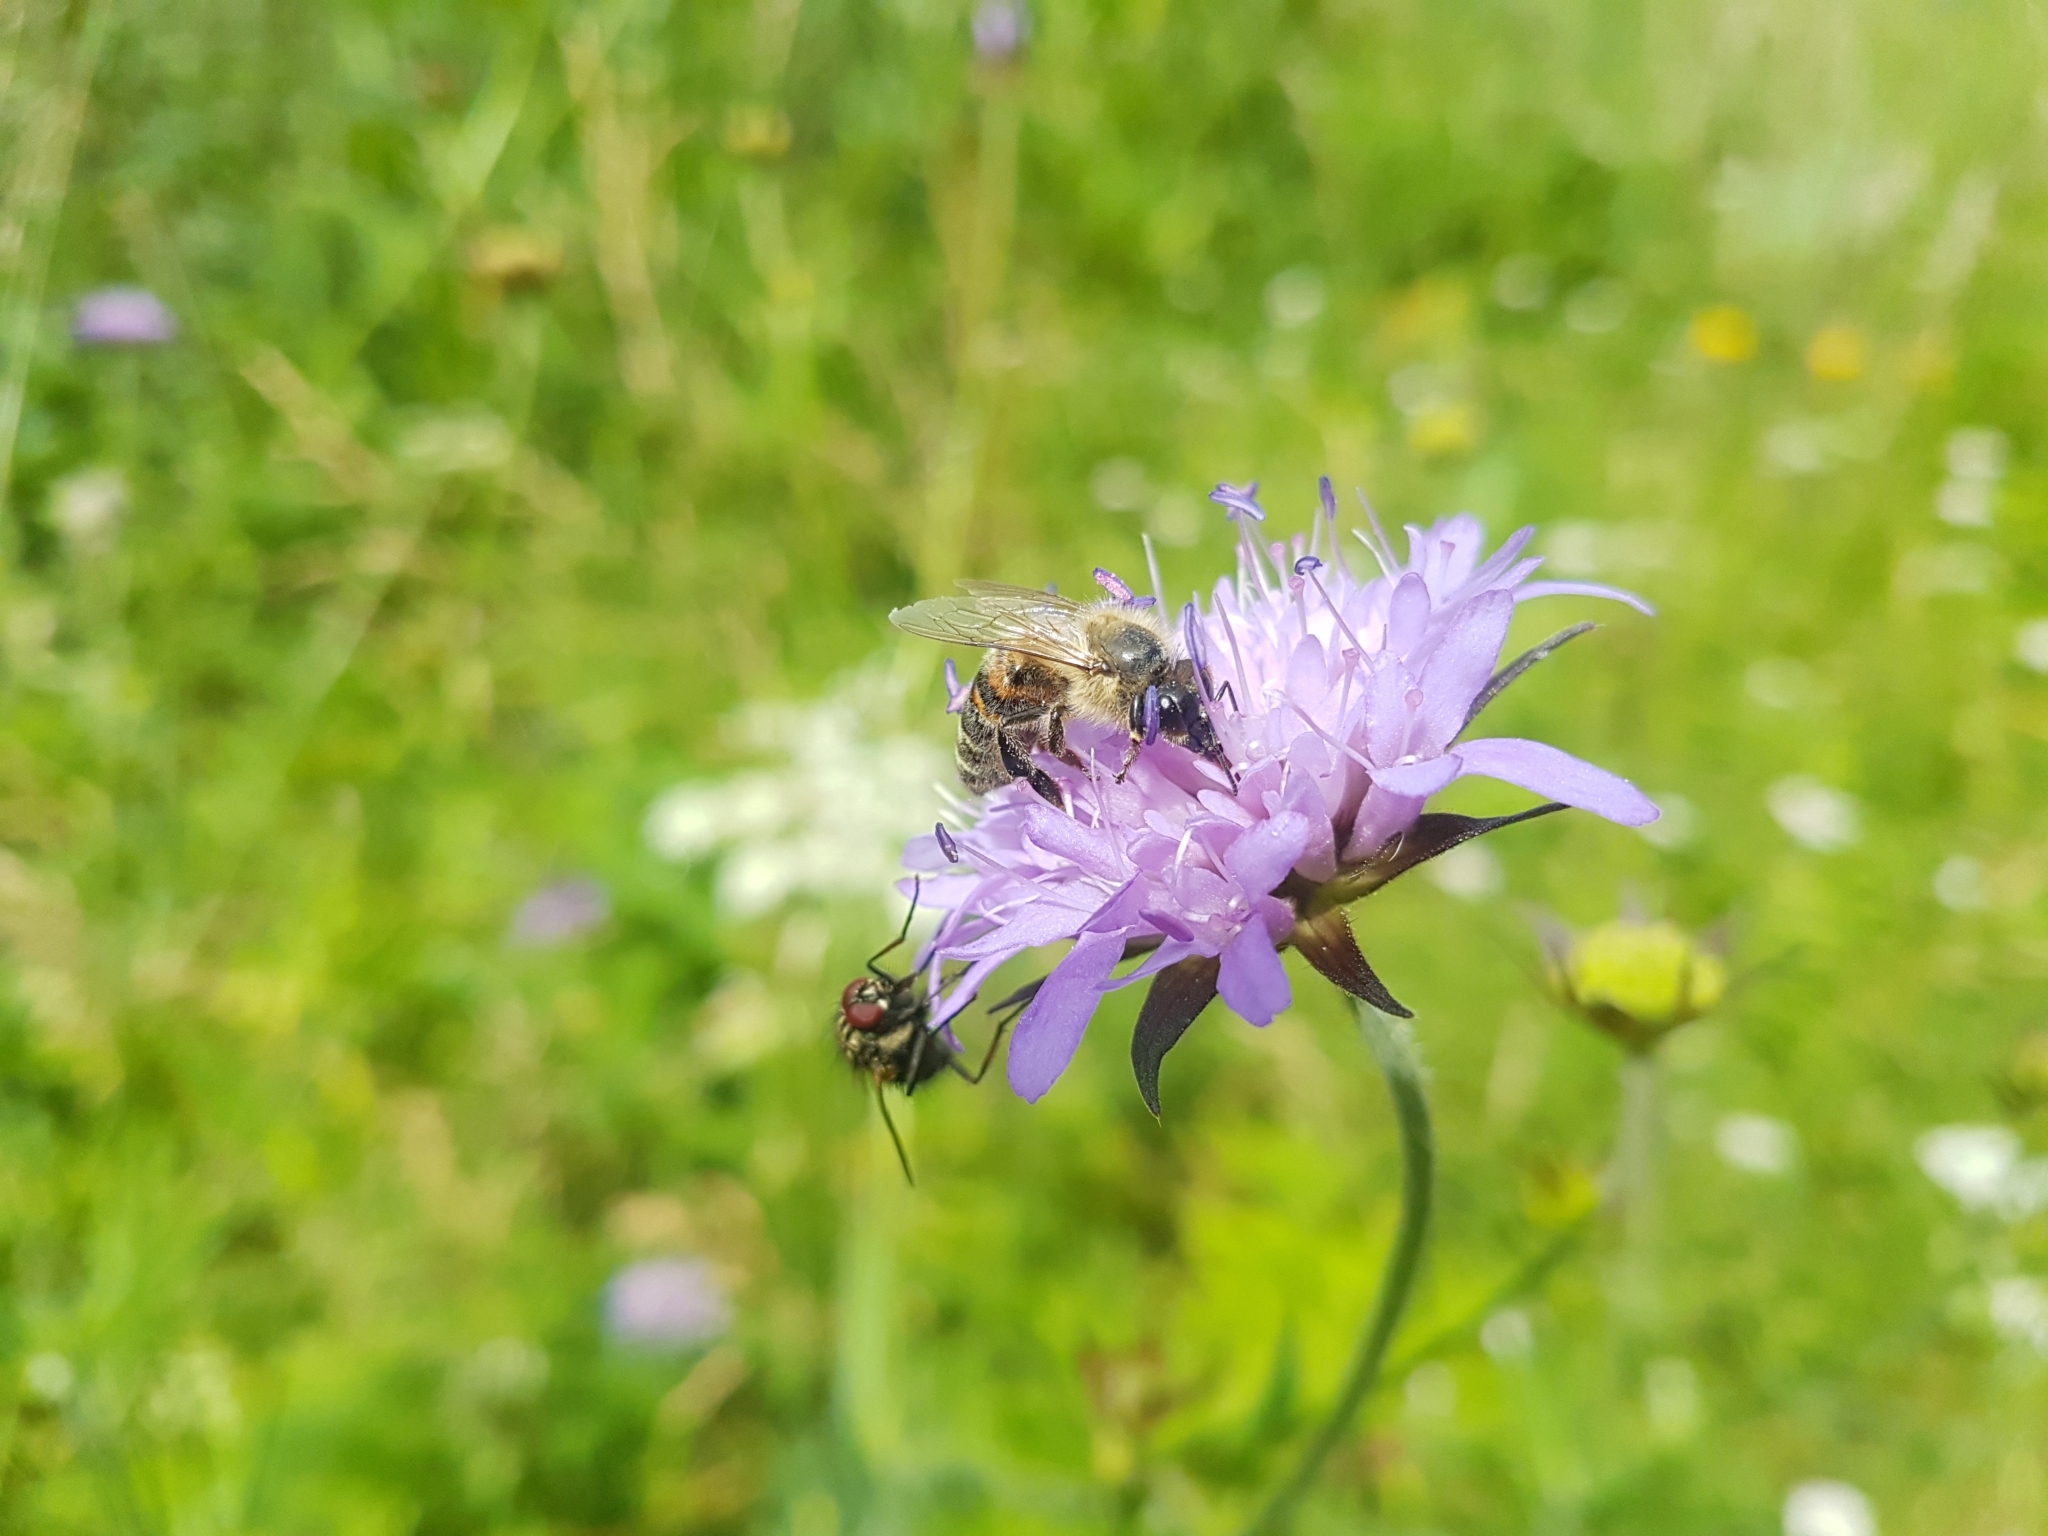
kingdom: Animalia
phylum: Arthropoda
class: Insecta
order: Hymenoptera
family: Apidae
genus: Apis
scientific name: Apis mellifera
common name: Honey bee
